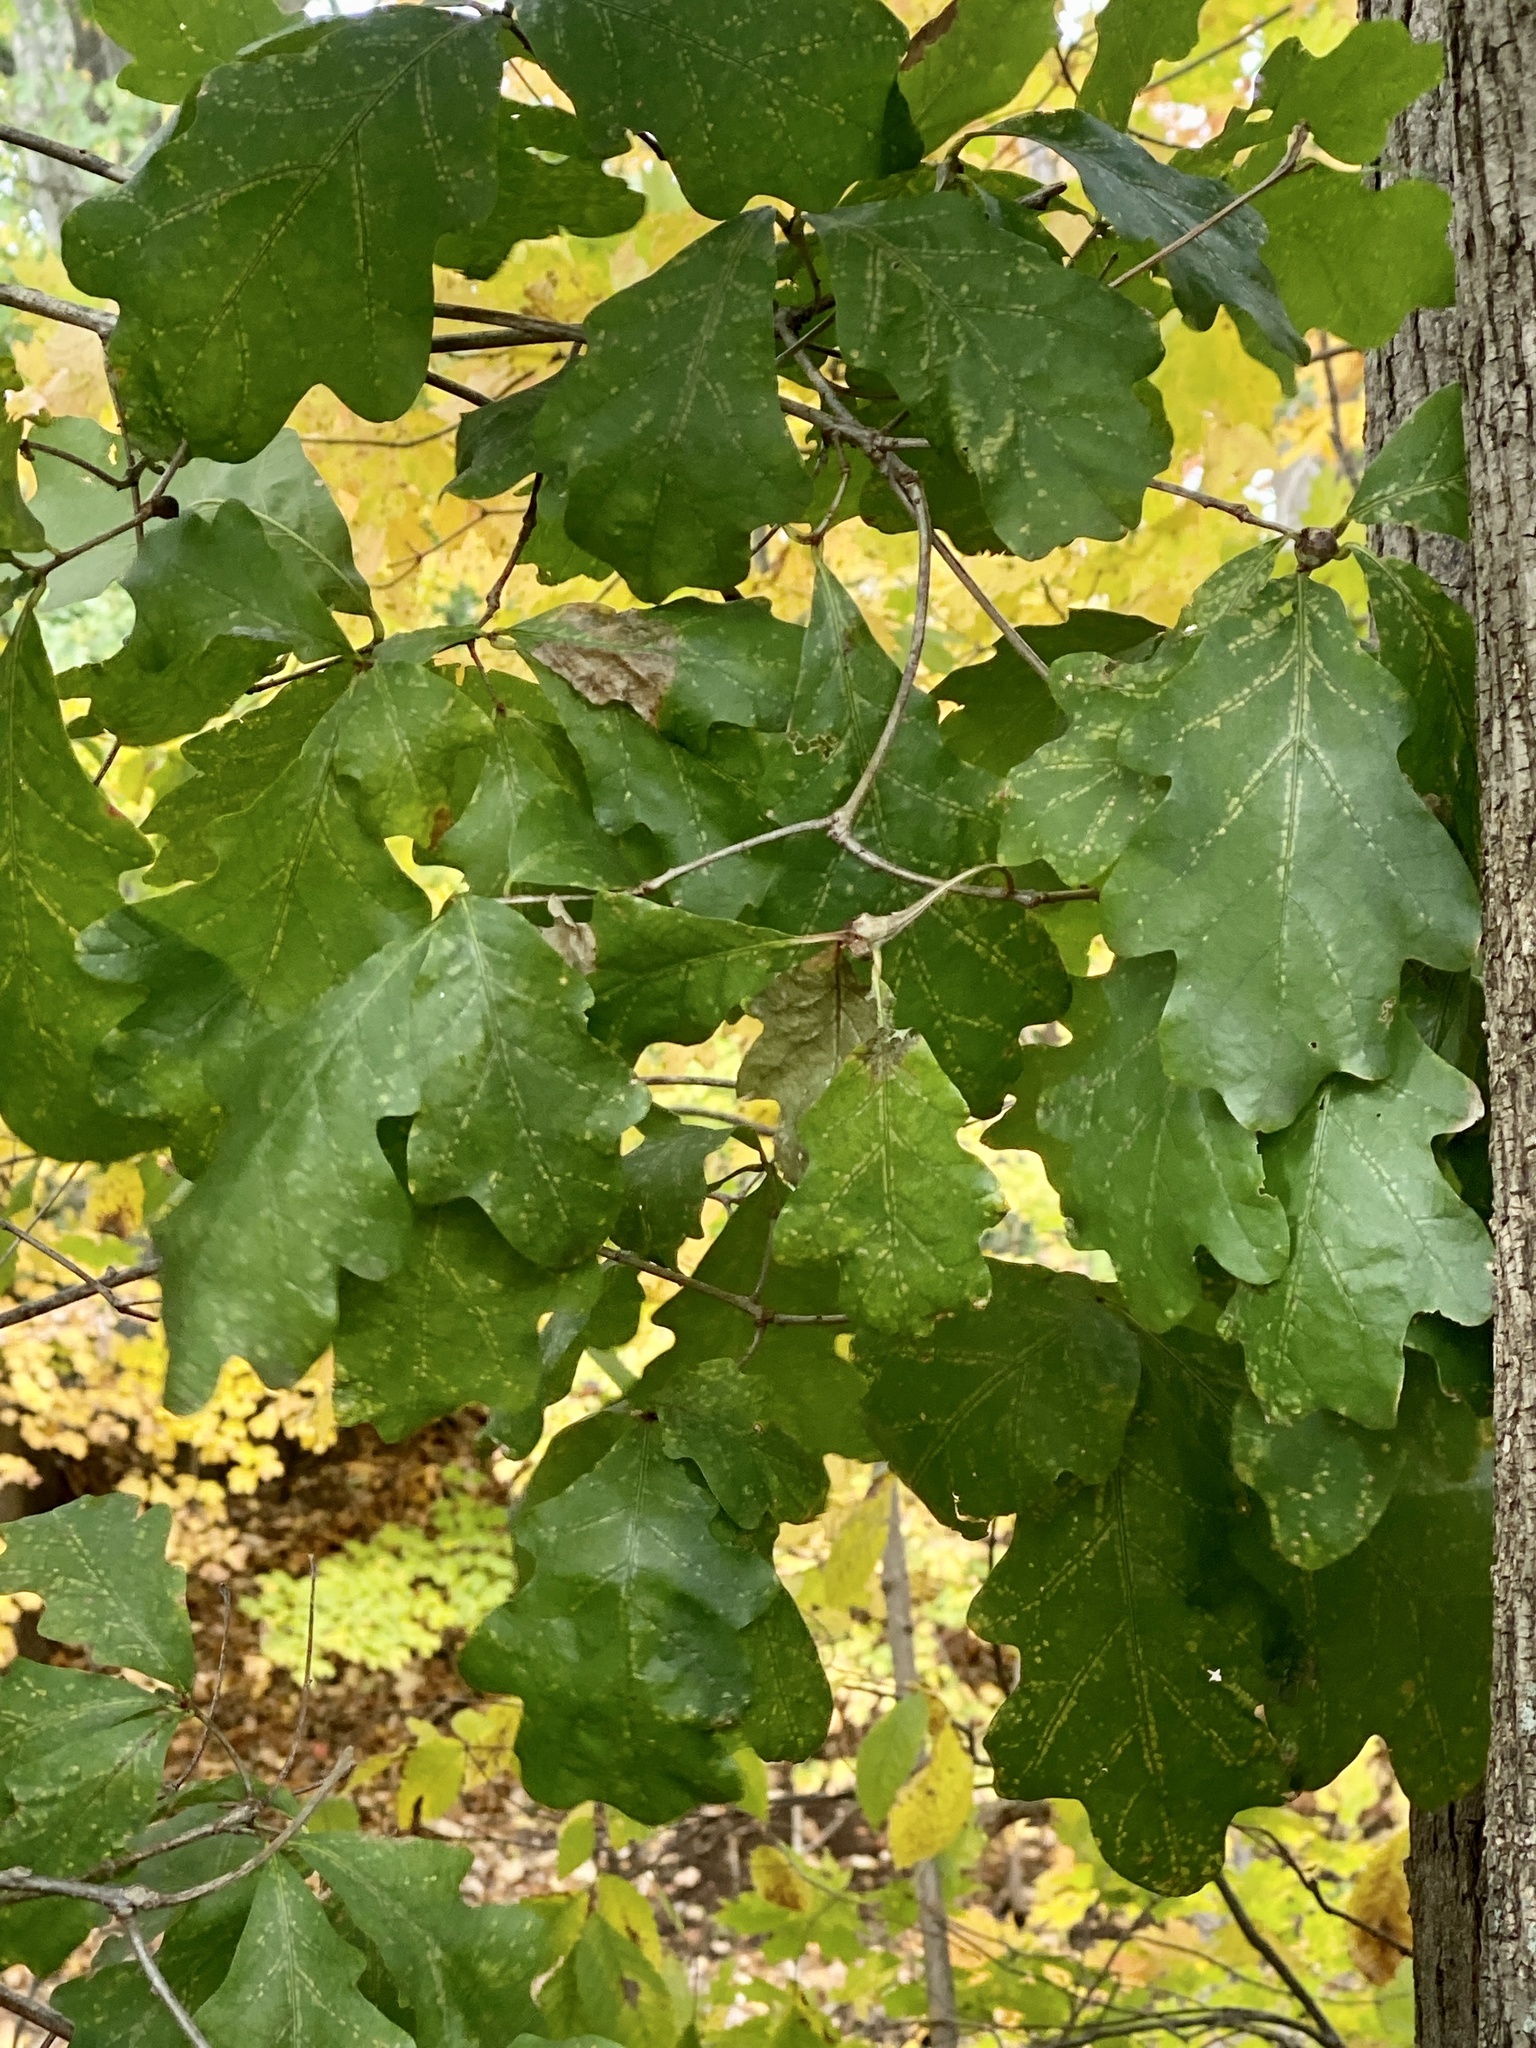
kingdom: Plantae
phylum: Tracheophyta
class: Magnoliopsida
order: Fagales
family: Fagaceae
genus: Quercus
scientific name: Quercus alba
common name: White oak
